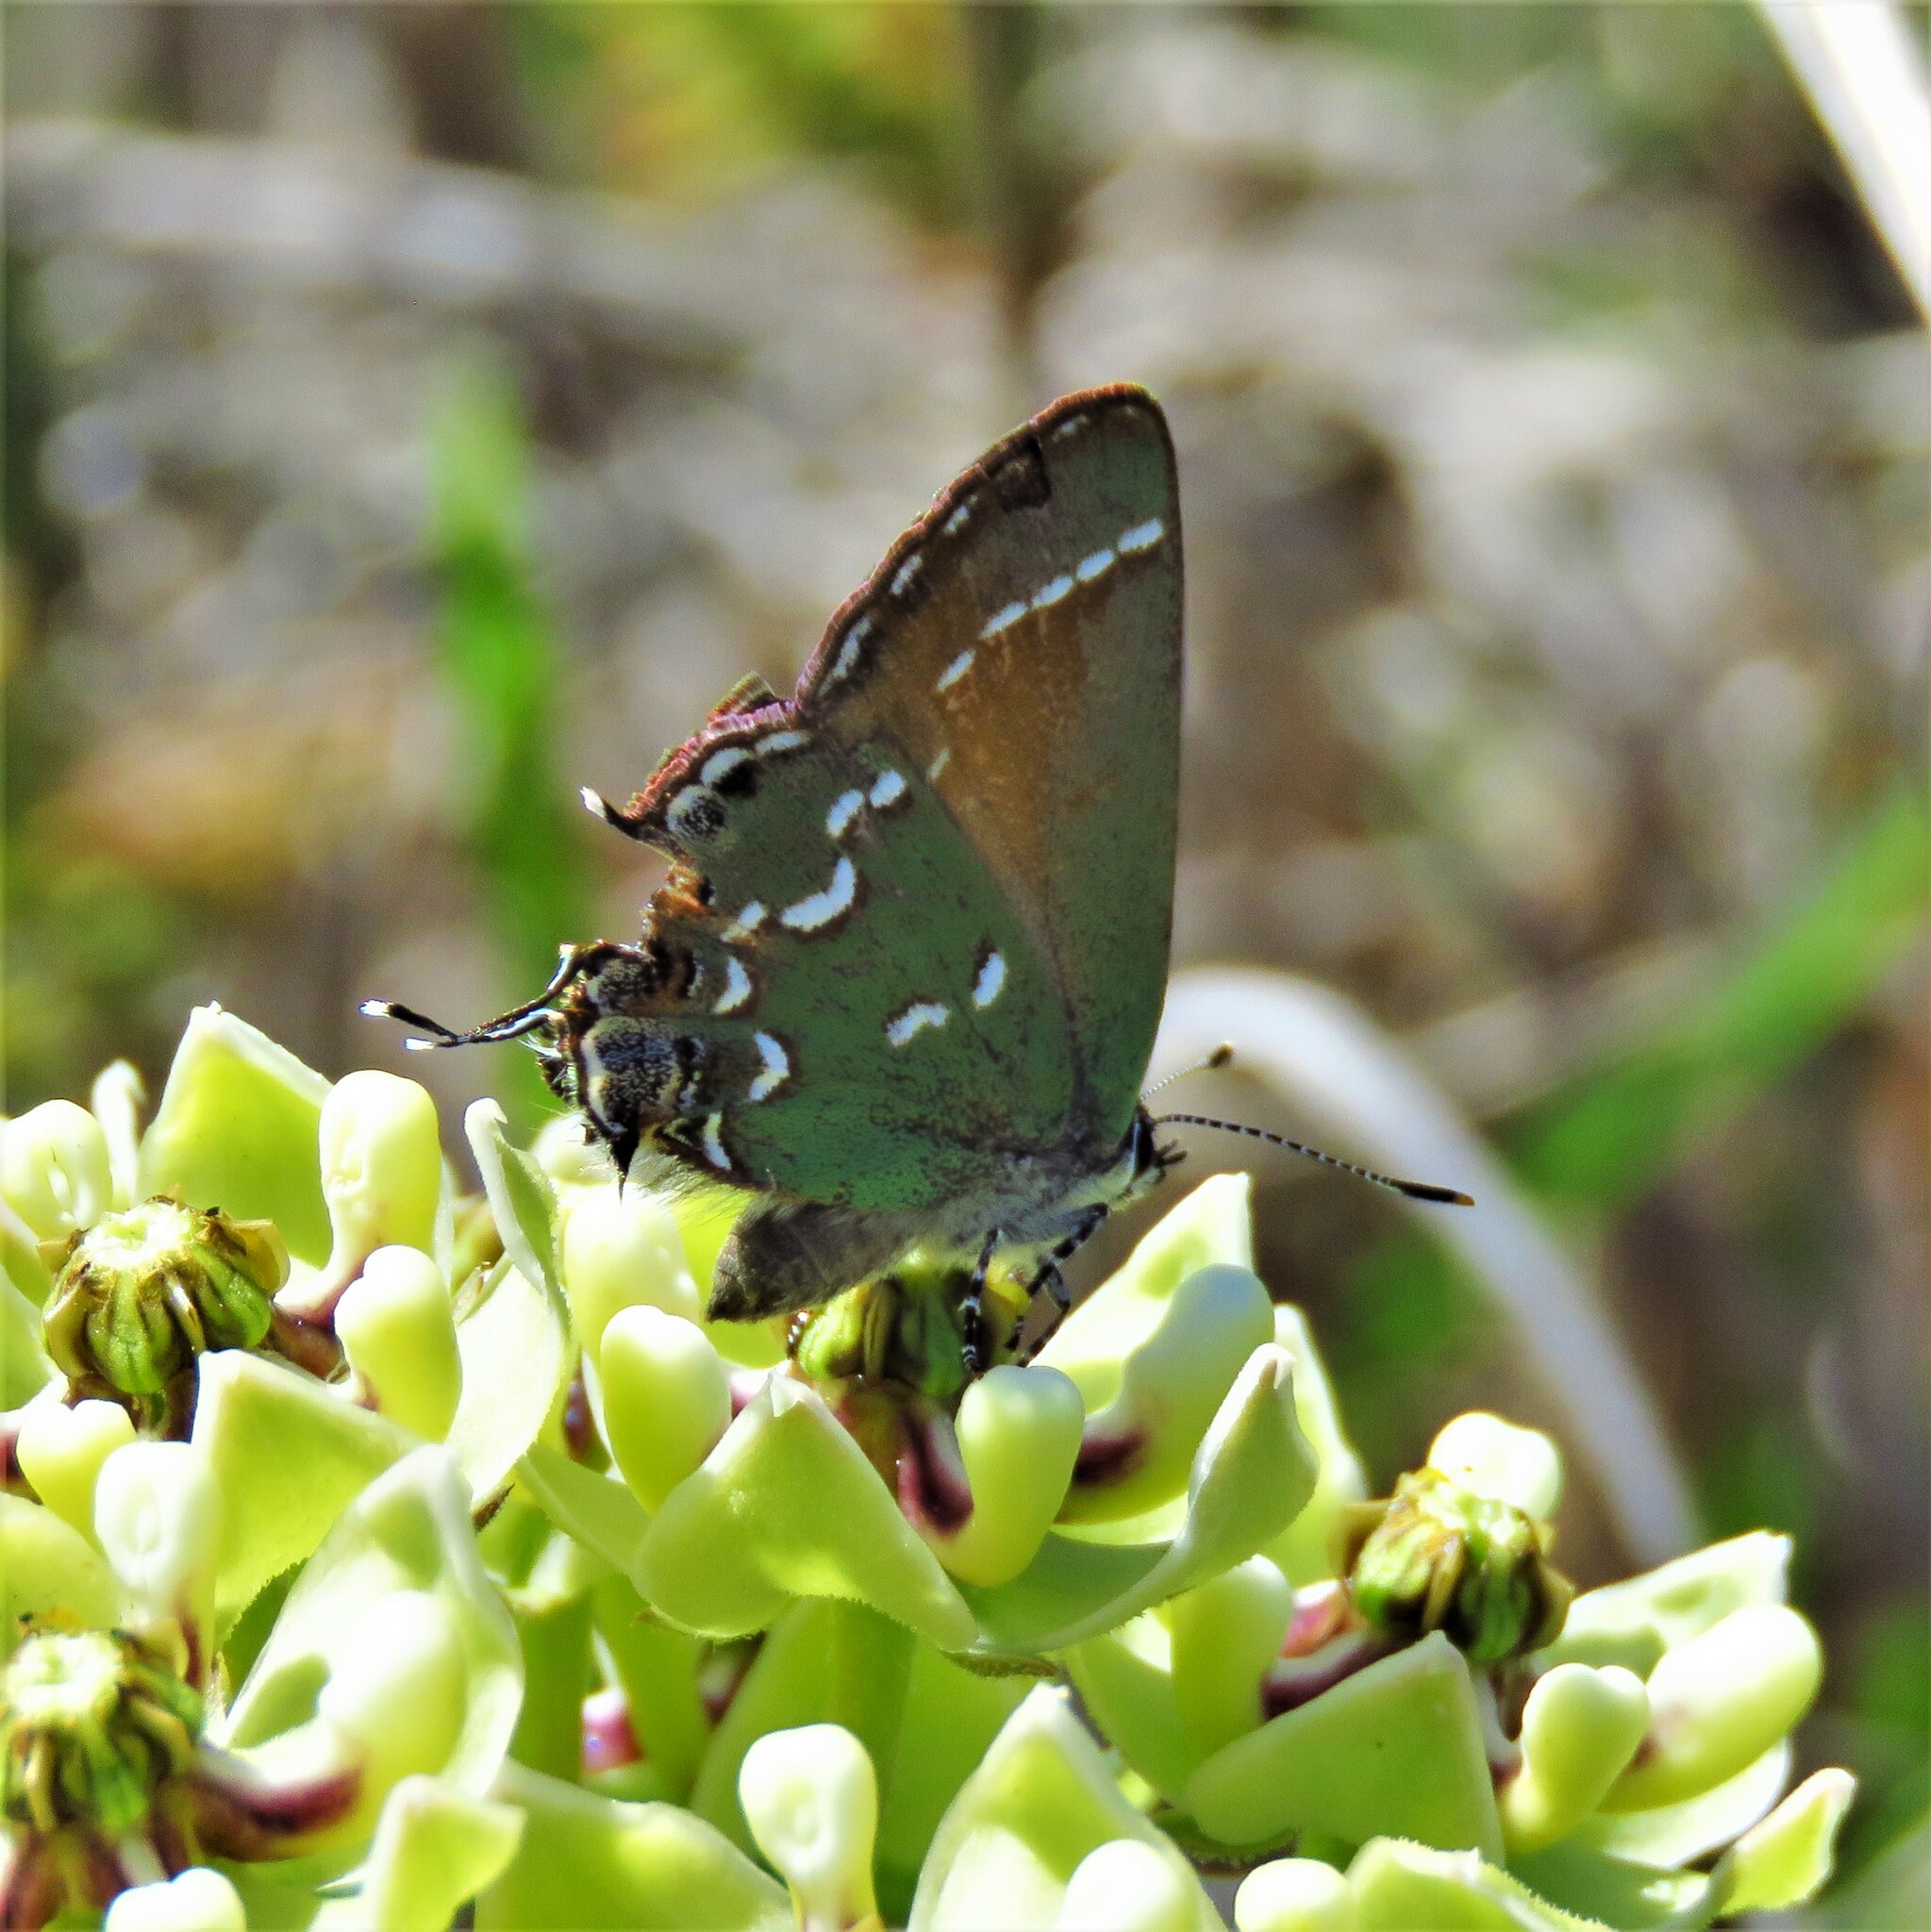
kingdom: Animalia
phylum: Arthropoda
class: Insecta
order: Lepidoptera
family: Lycaenidae
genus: Mitoura
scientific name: Mitoura gryneus
